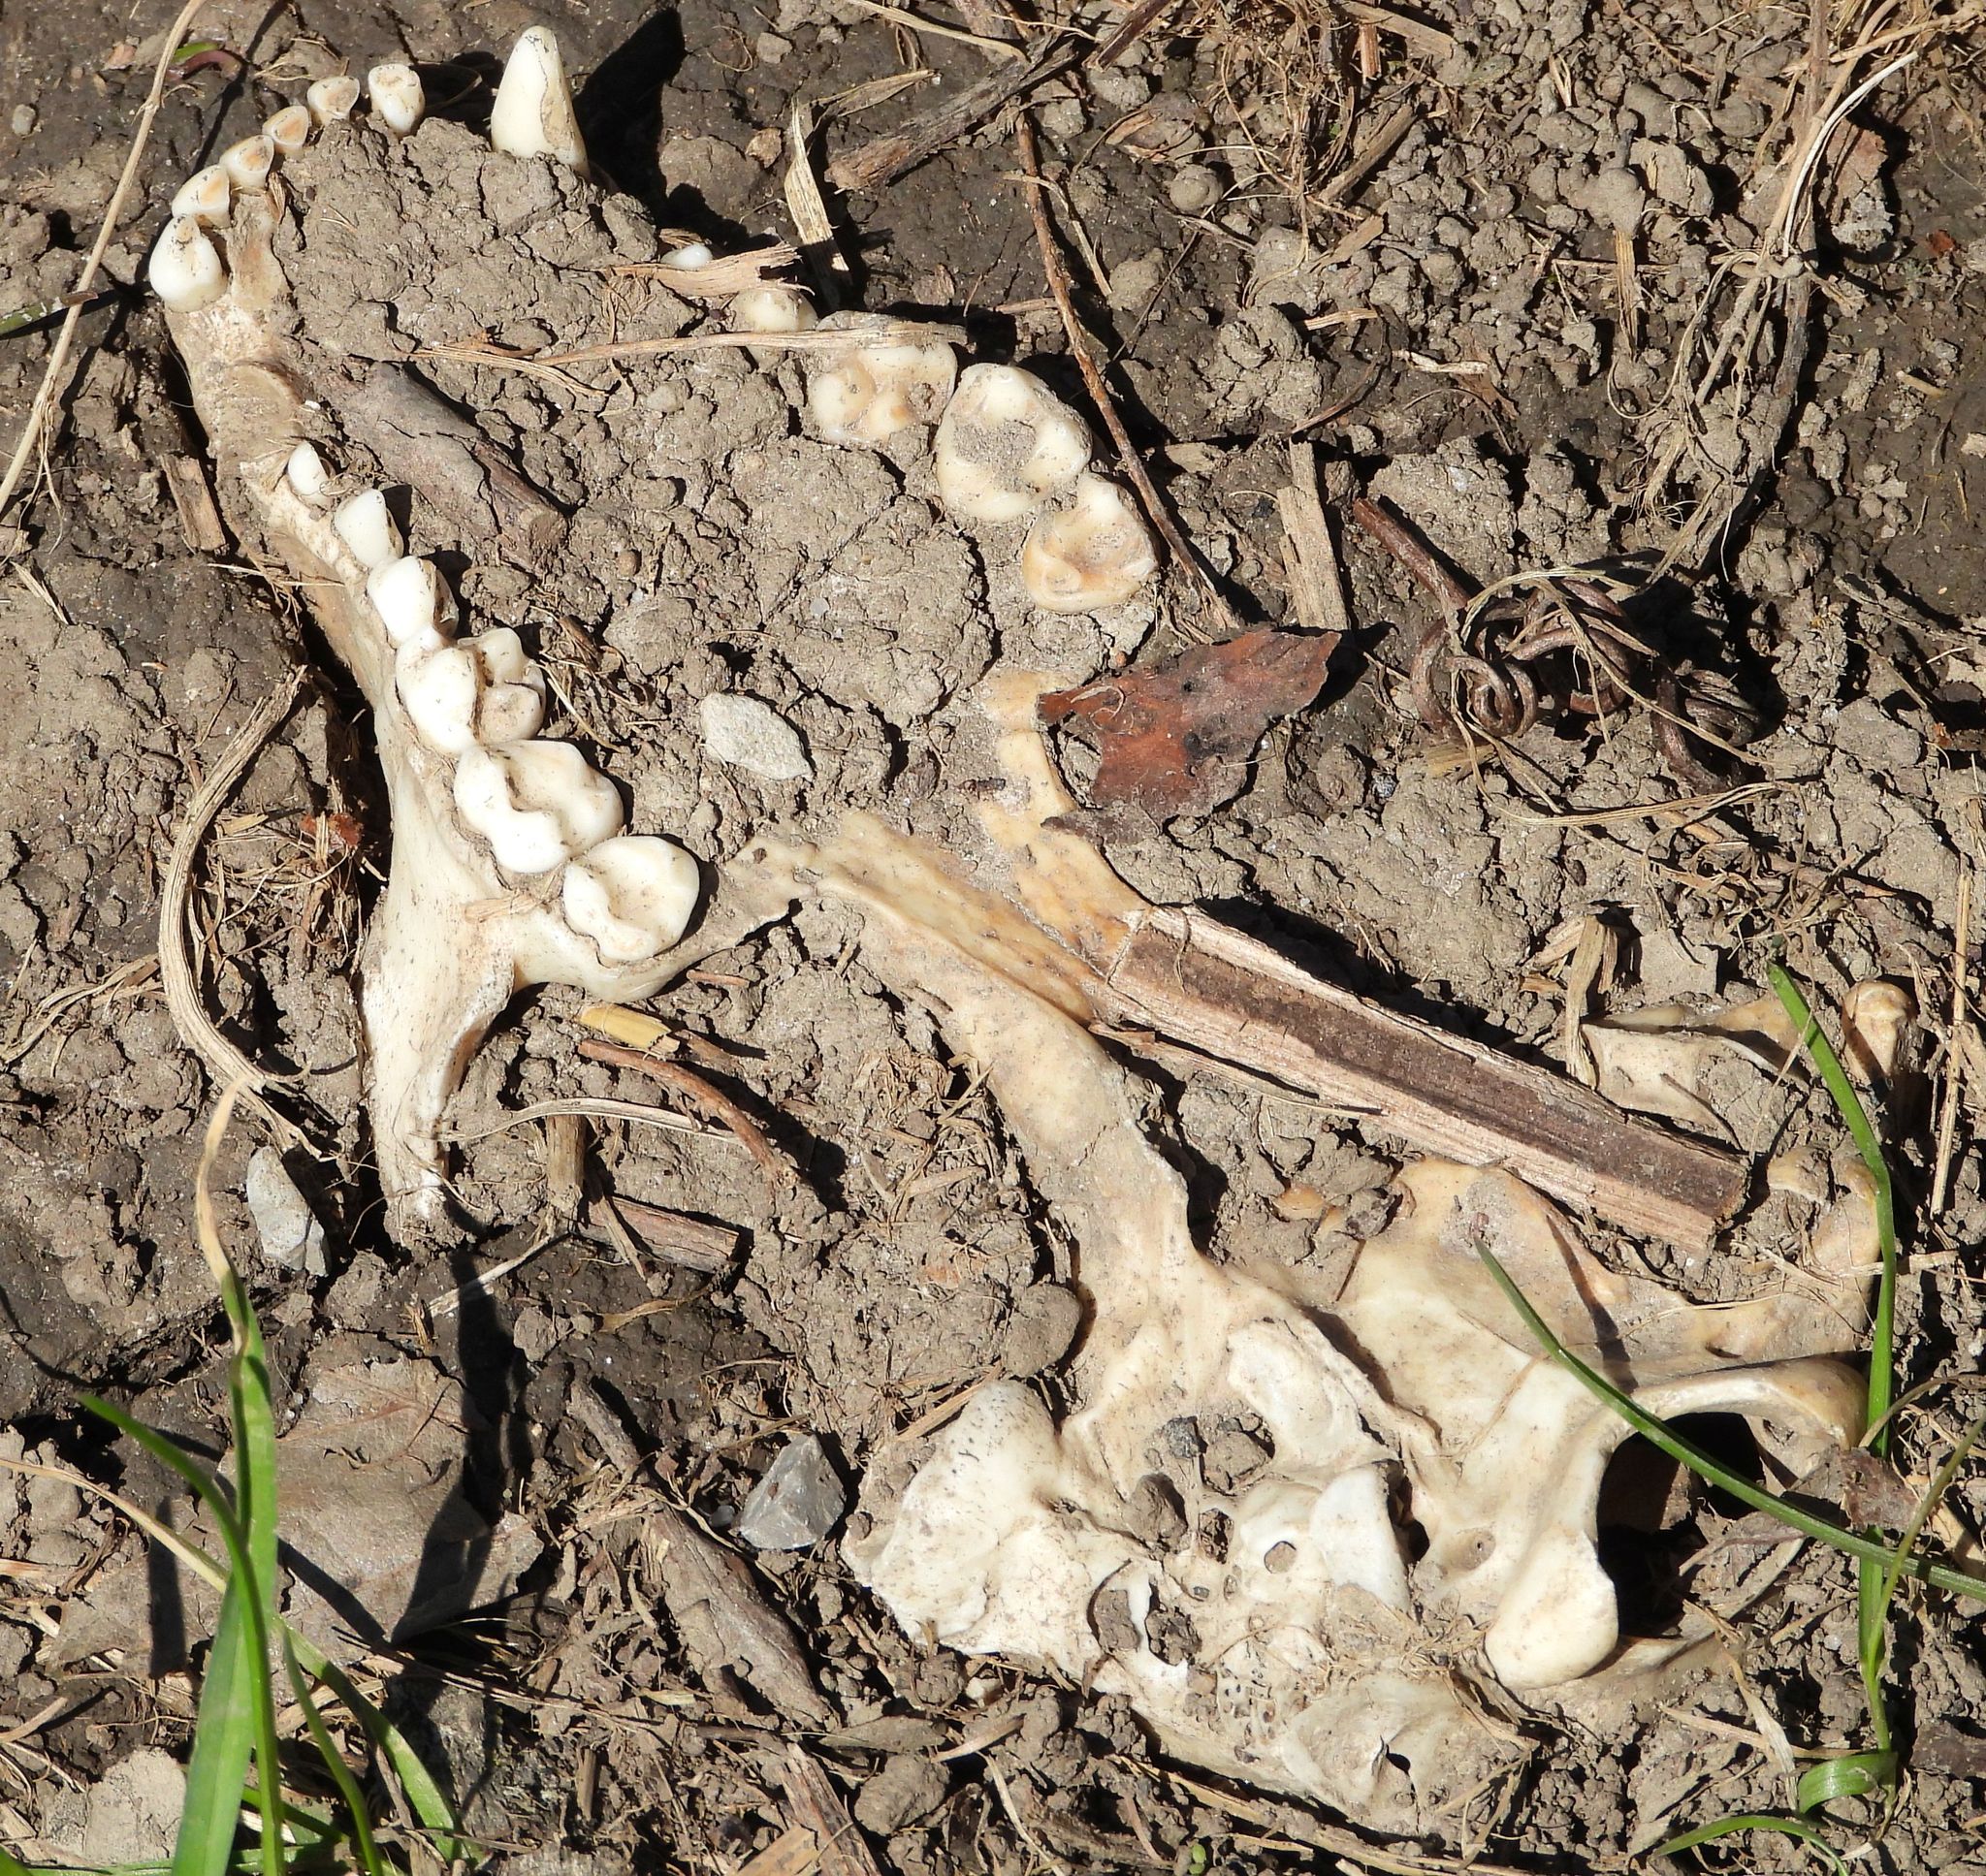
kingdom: Animalia
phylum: Chordata
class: Mammalia
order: Carnivora
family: Procyonidae
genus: Procyon
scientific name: Procyon lotor
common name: Raccoon
